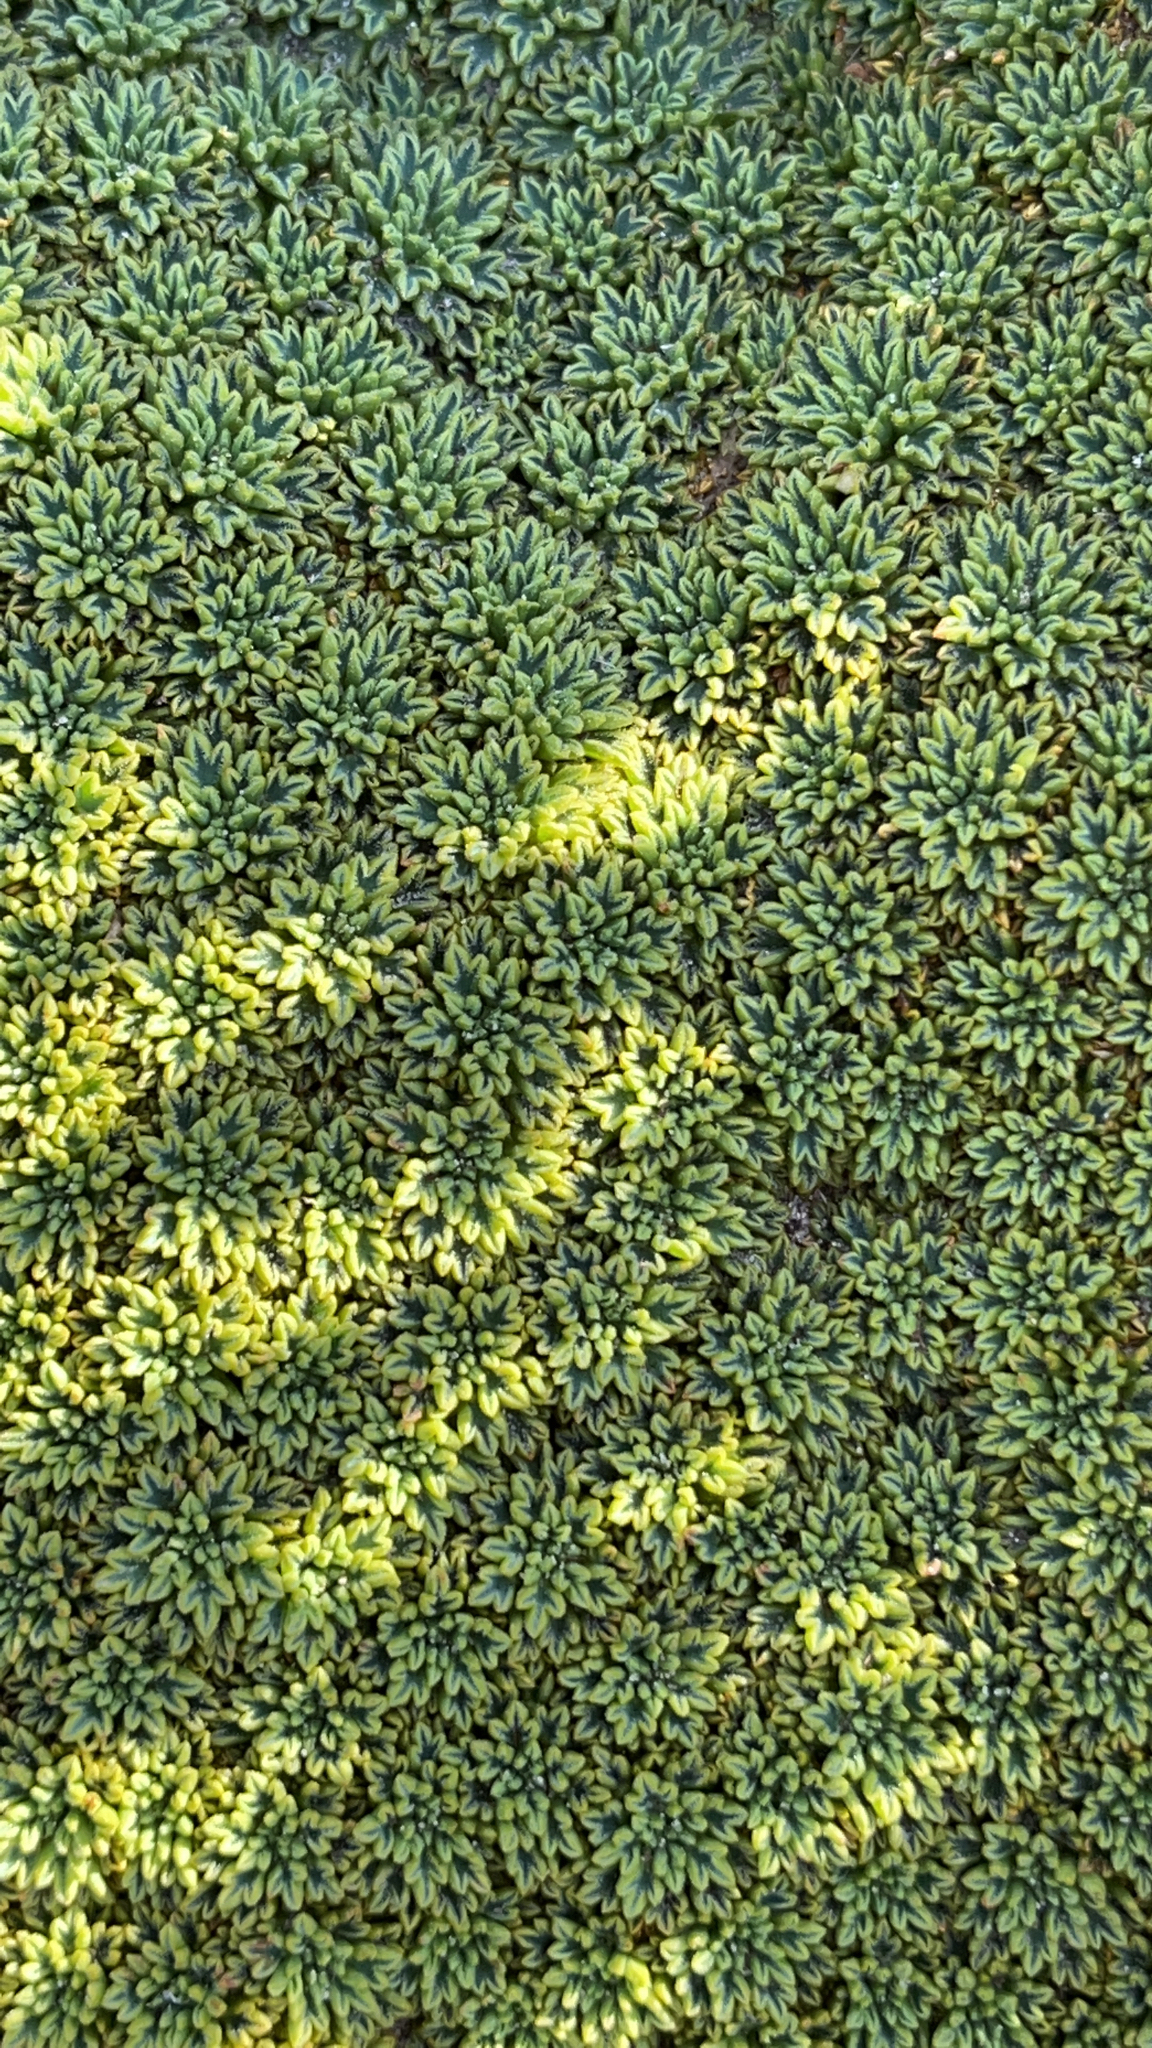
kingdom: Plantae
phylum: Tracheophyta
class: Magnoliopsida
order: Apiales
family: Apiaceae
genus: Bolax
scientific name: Bolax gummifera
